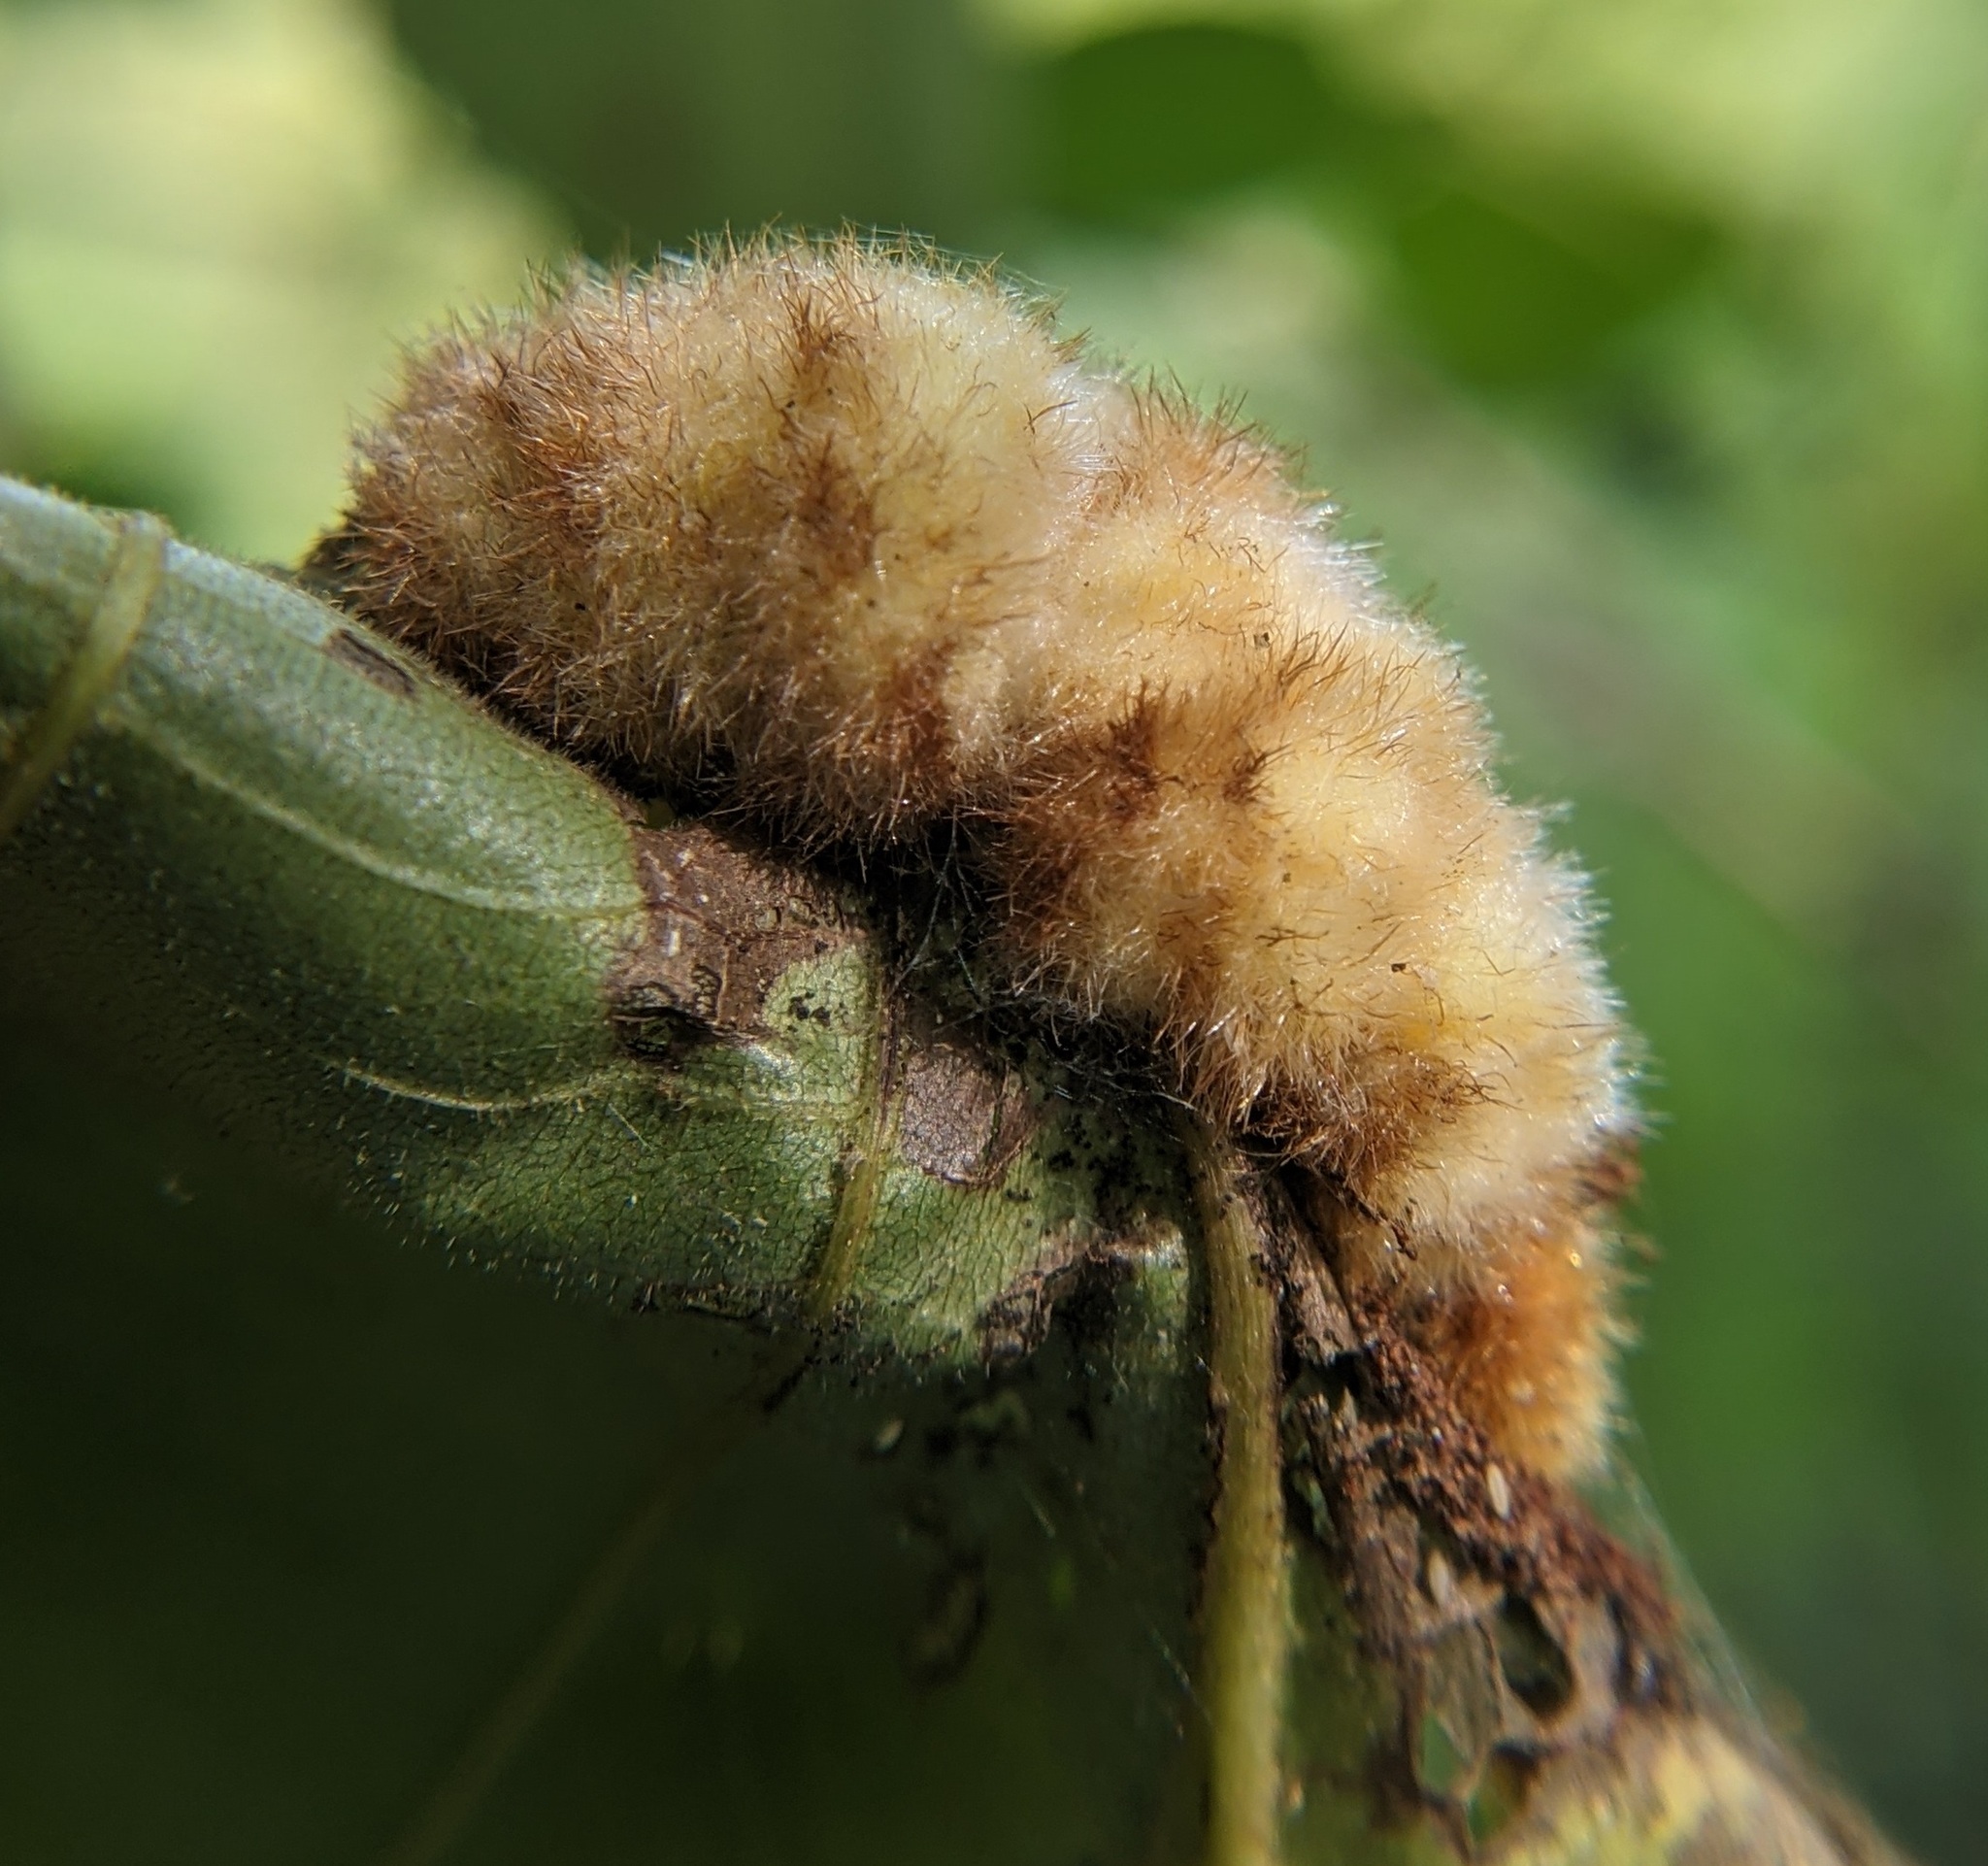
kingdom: Animalia
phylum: Arthropoda
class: Insecta
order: Diptera
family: Cecidomyiidae
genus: Caryomyia
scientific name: Caryomyia aggregata
